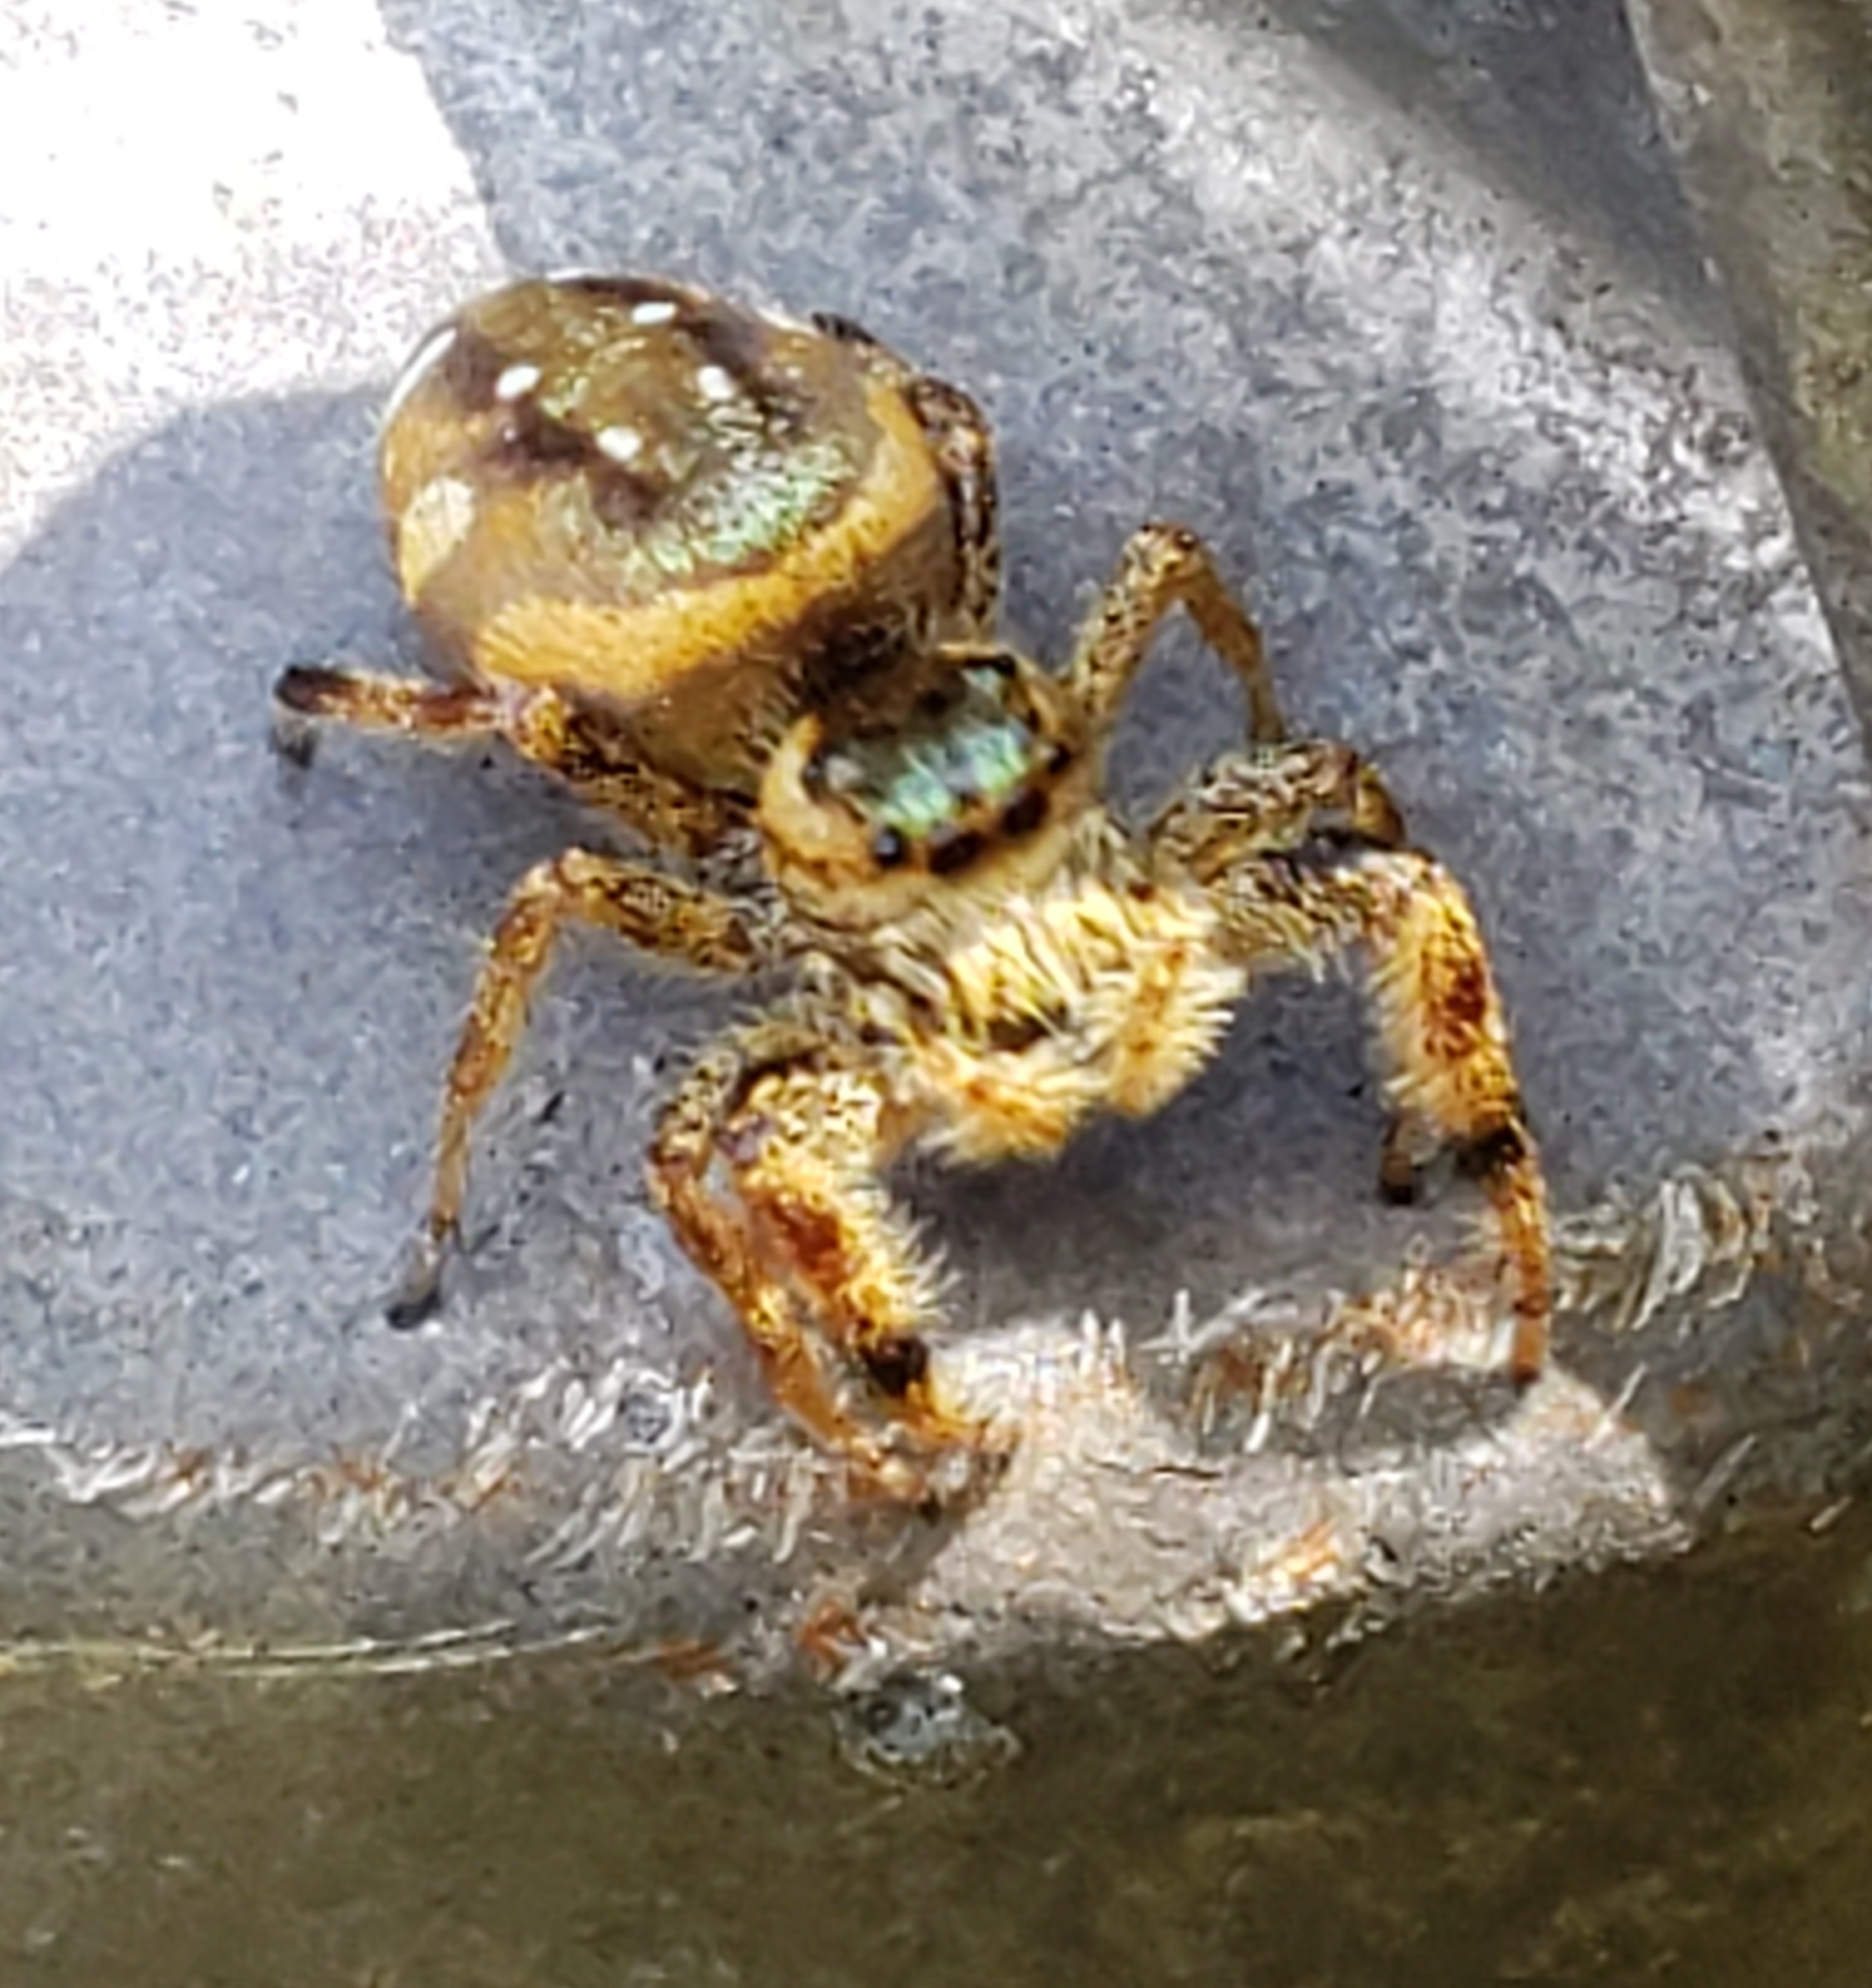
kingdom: Animalia
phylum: Arthropoda
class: Arachnida
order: Araneae
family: Salticidae
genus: Paraphidippus
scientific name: Paraphidippus aurantius
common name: Jumping spiders
